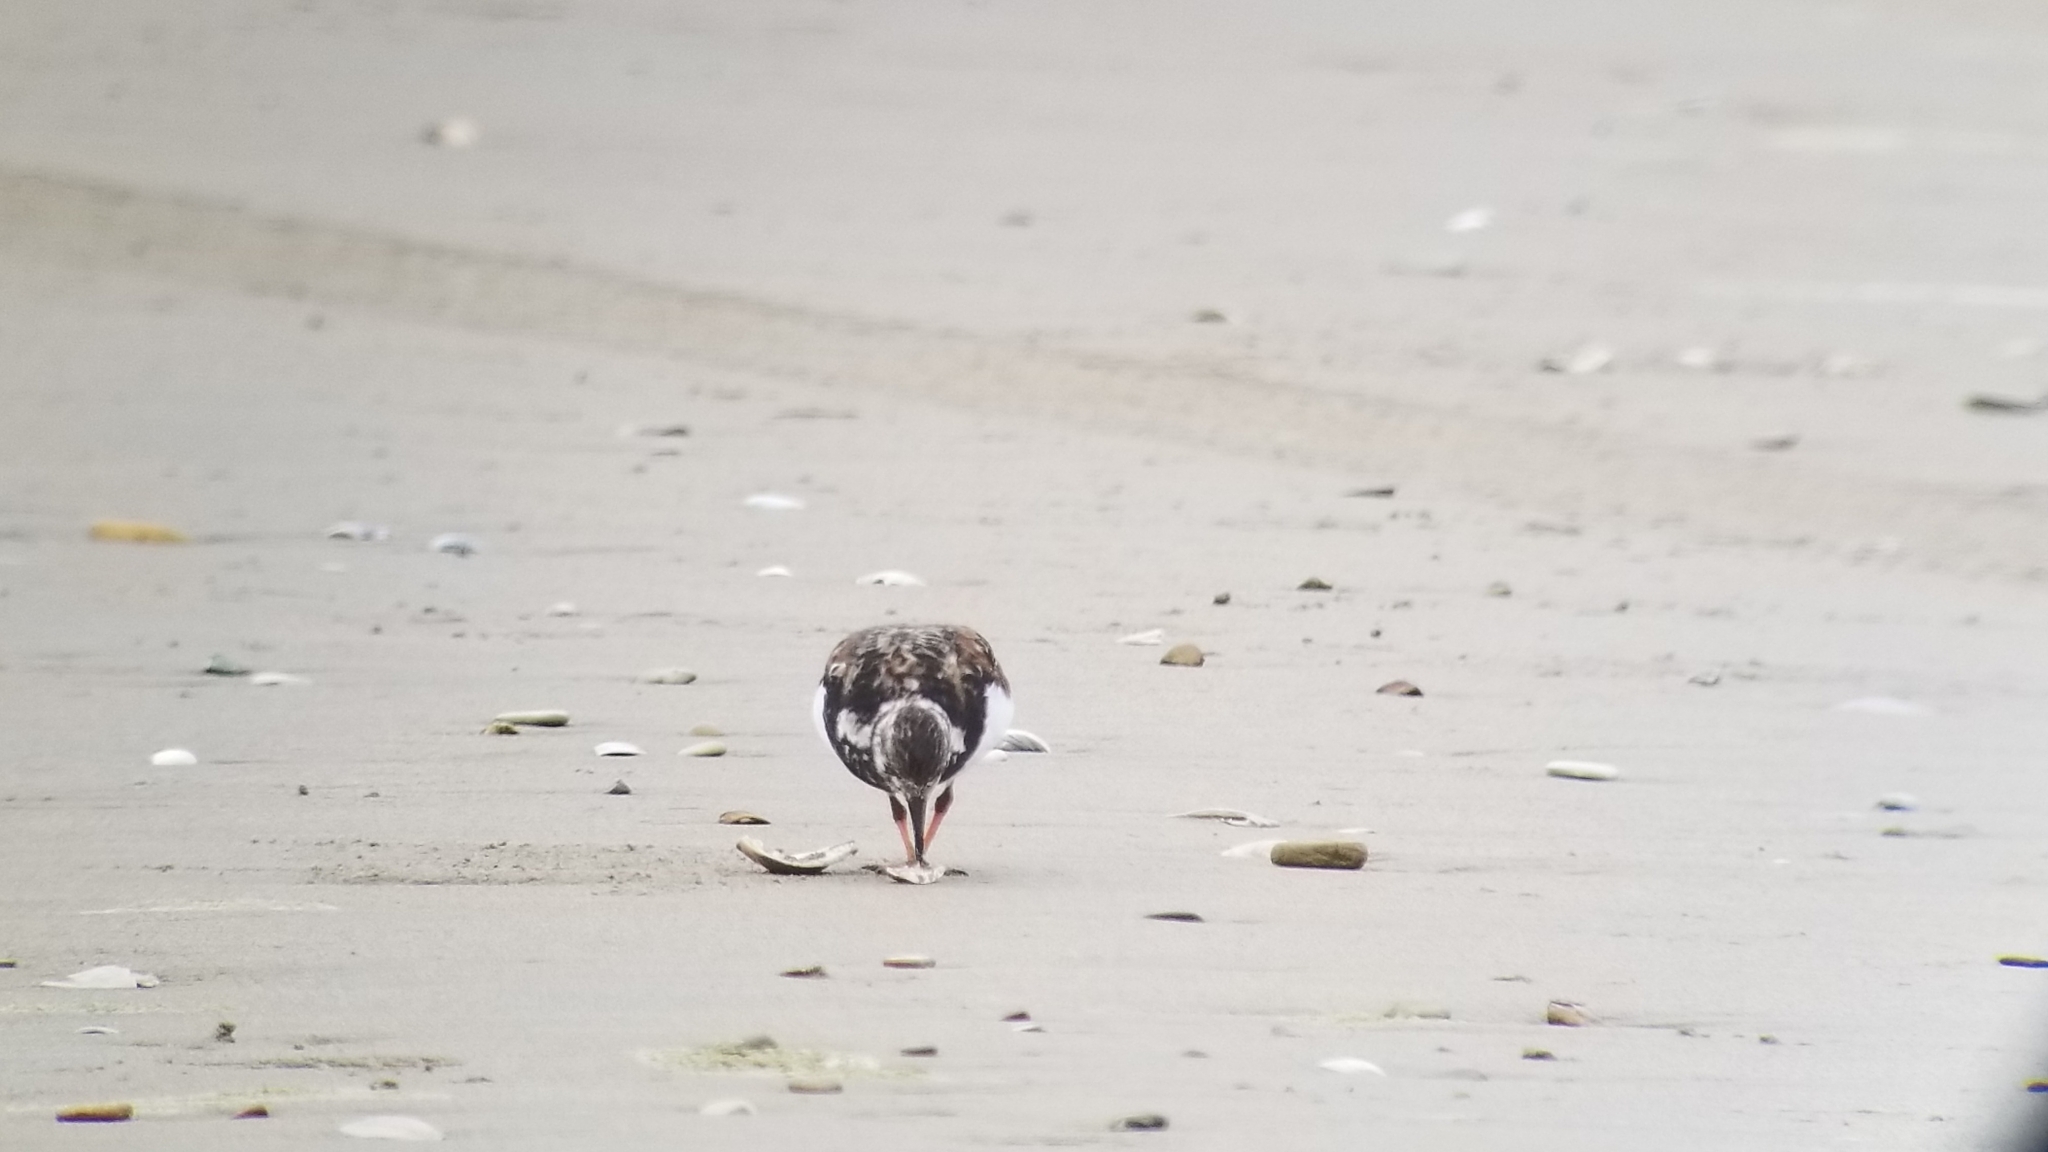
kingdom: Animalia
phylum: Chordata
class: Aves
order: Charadriiformes
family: Scolopacidae
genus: Arenaria
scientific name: Arenaria interpres
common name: Ruddy turnstone
